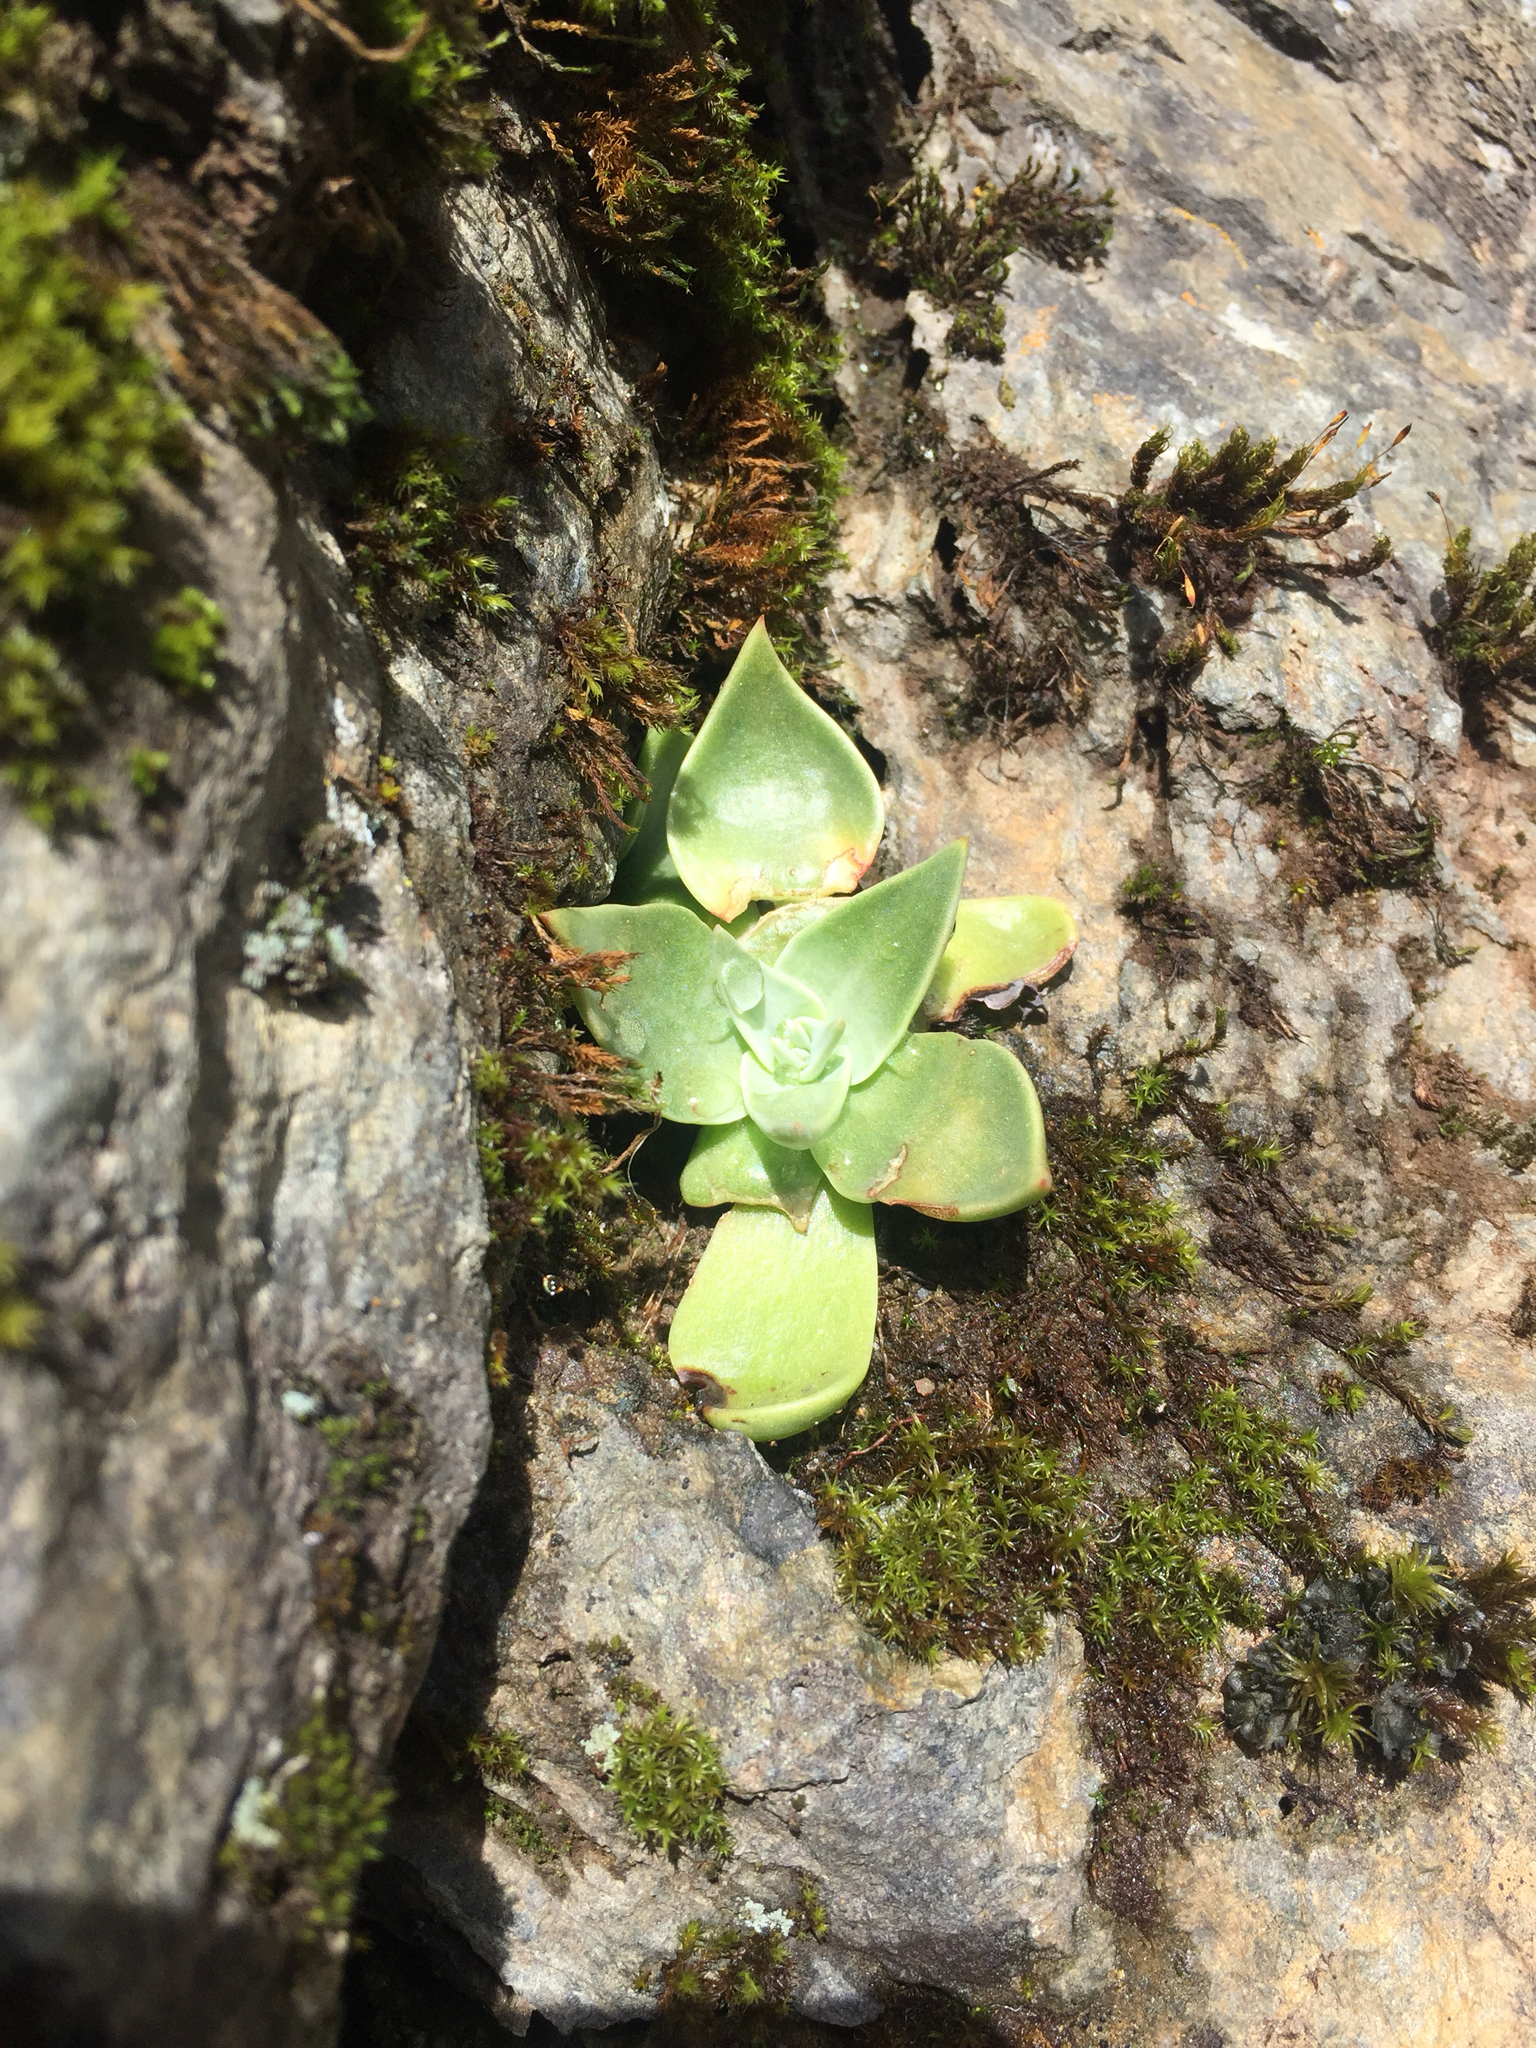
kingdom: Plantae
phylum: Tracheophyta
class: Magnoliopsida
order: Saxifragales
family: Crassulaceae
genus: Dudleya
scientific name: Dudleya cymosa
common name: Canyon dudleya
